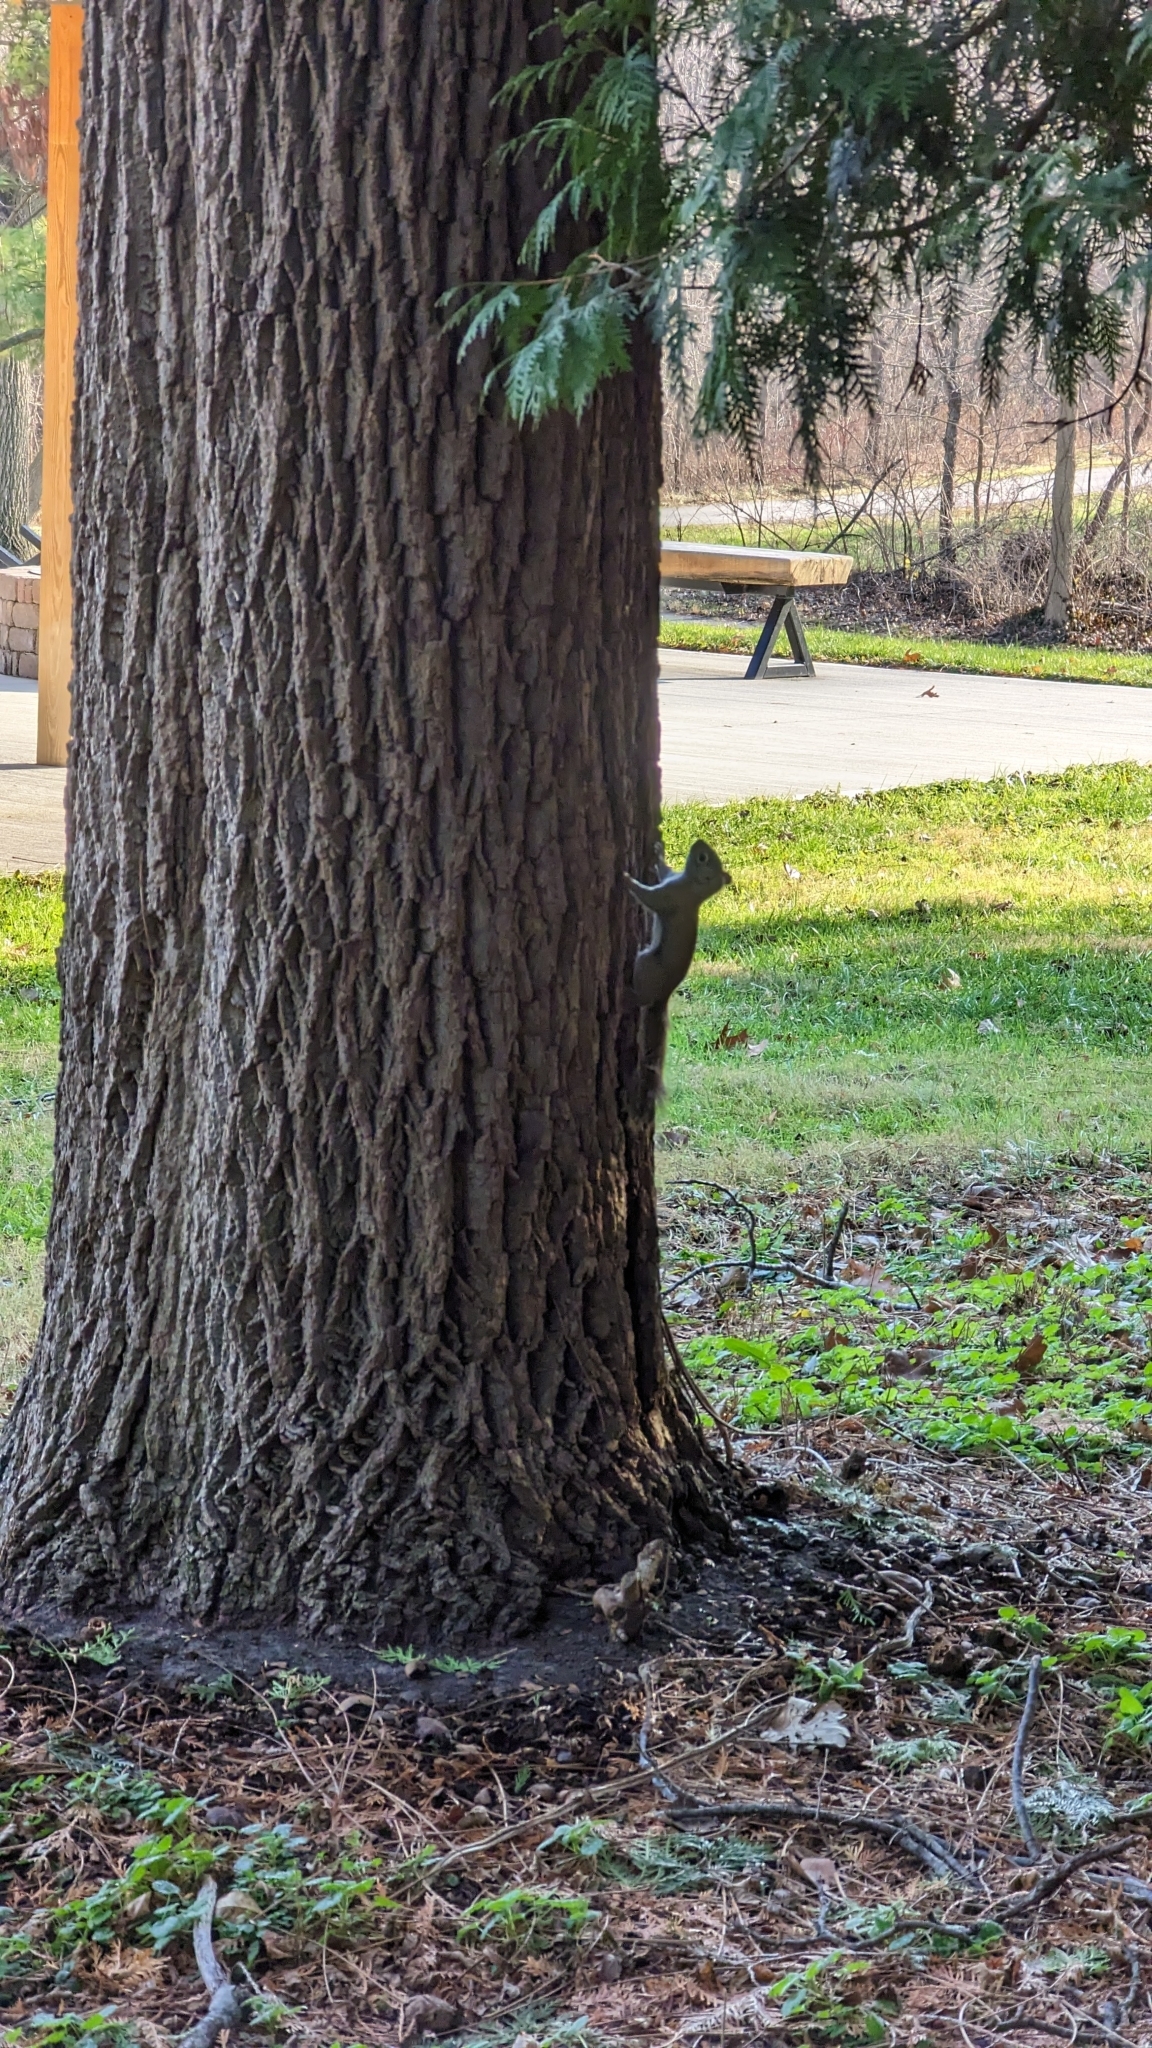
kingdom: Animalia
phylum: Chordata
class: Mammalia
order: Rodentia
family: Sciuridae
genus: Tamiasciurus
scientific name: Tamiasciurus hudsonicus
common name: Red squirrel
